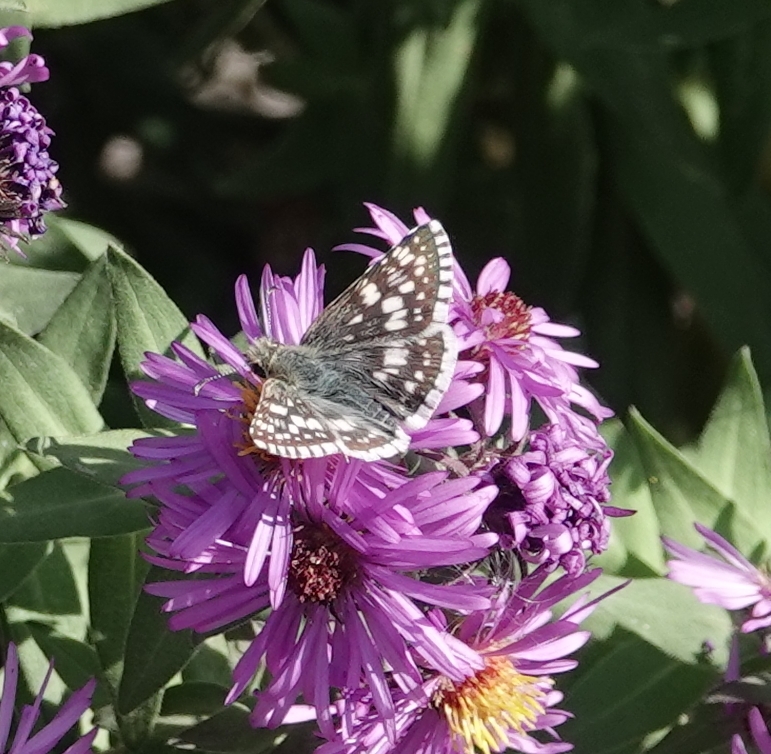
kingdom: Animalia
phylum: Arthropoda
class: Insecta
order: Lepidoptera
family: Hesperiidae
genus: Burnsius
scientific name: Burnsius communis
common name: Common checkered-skipper
